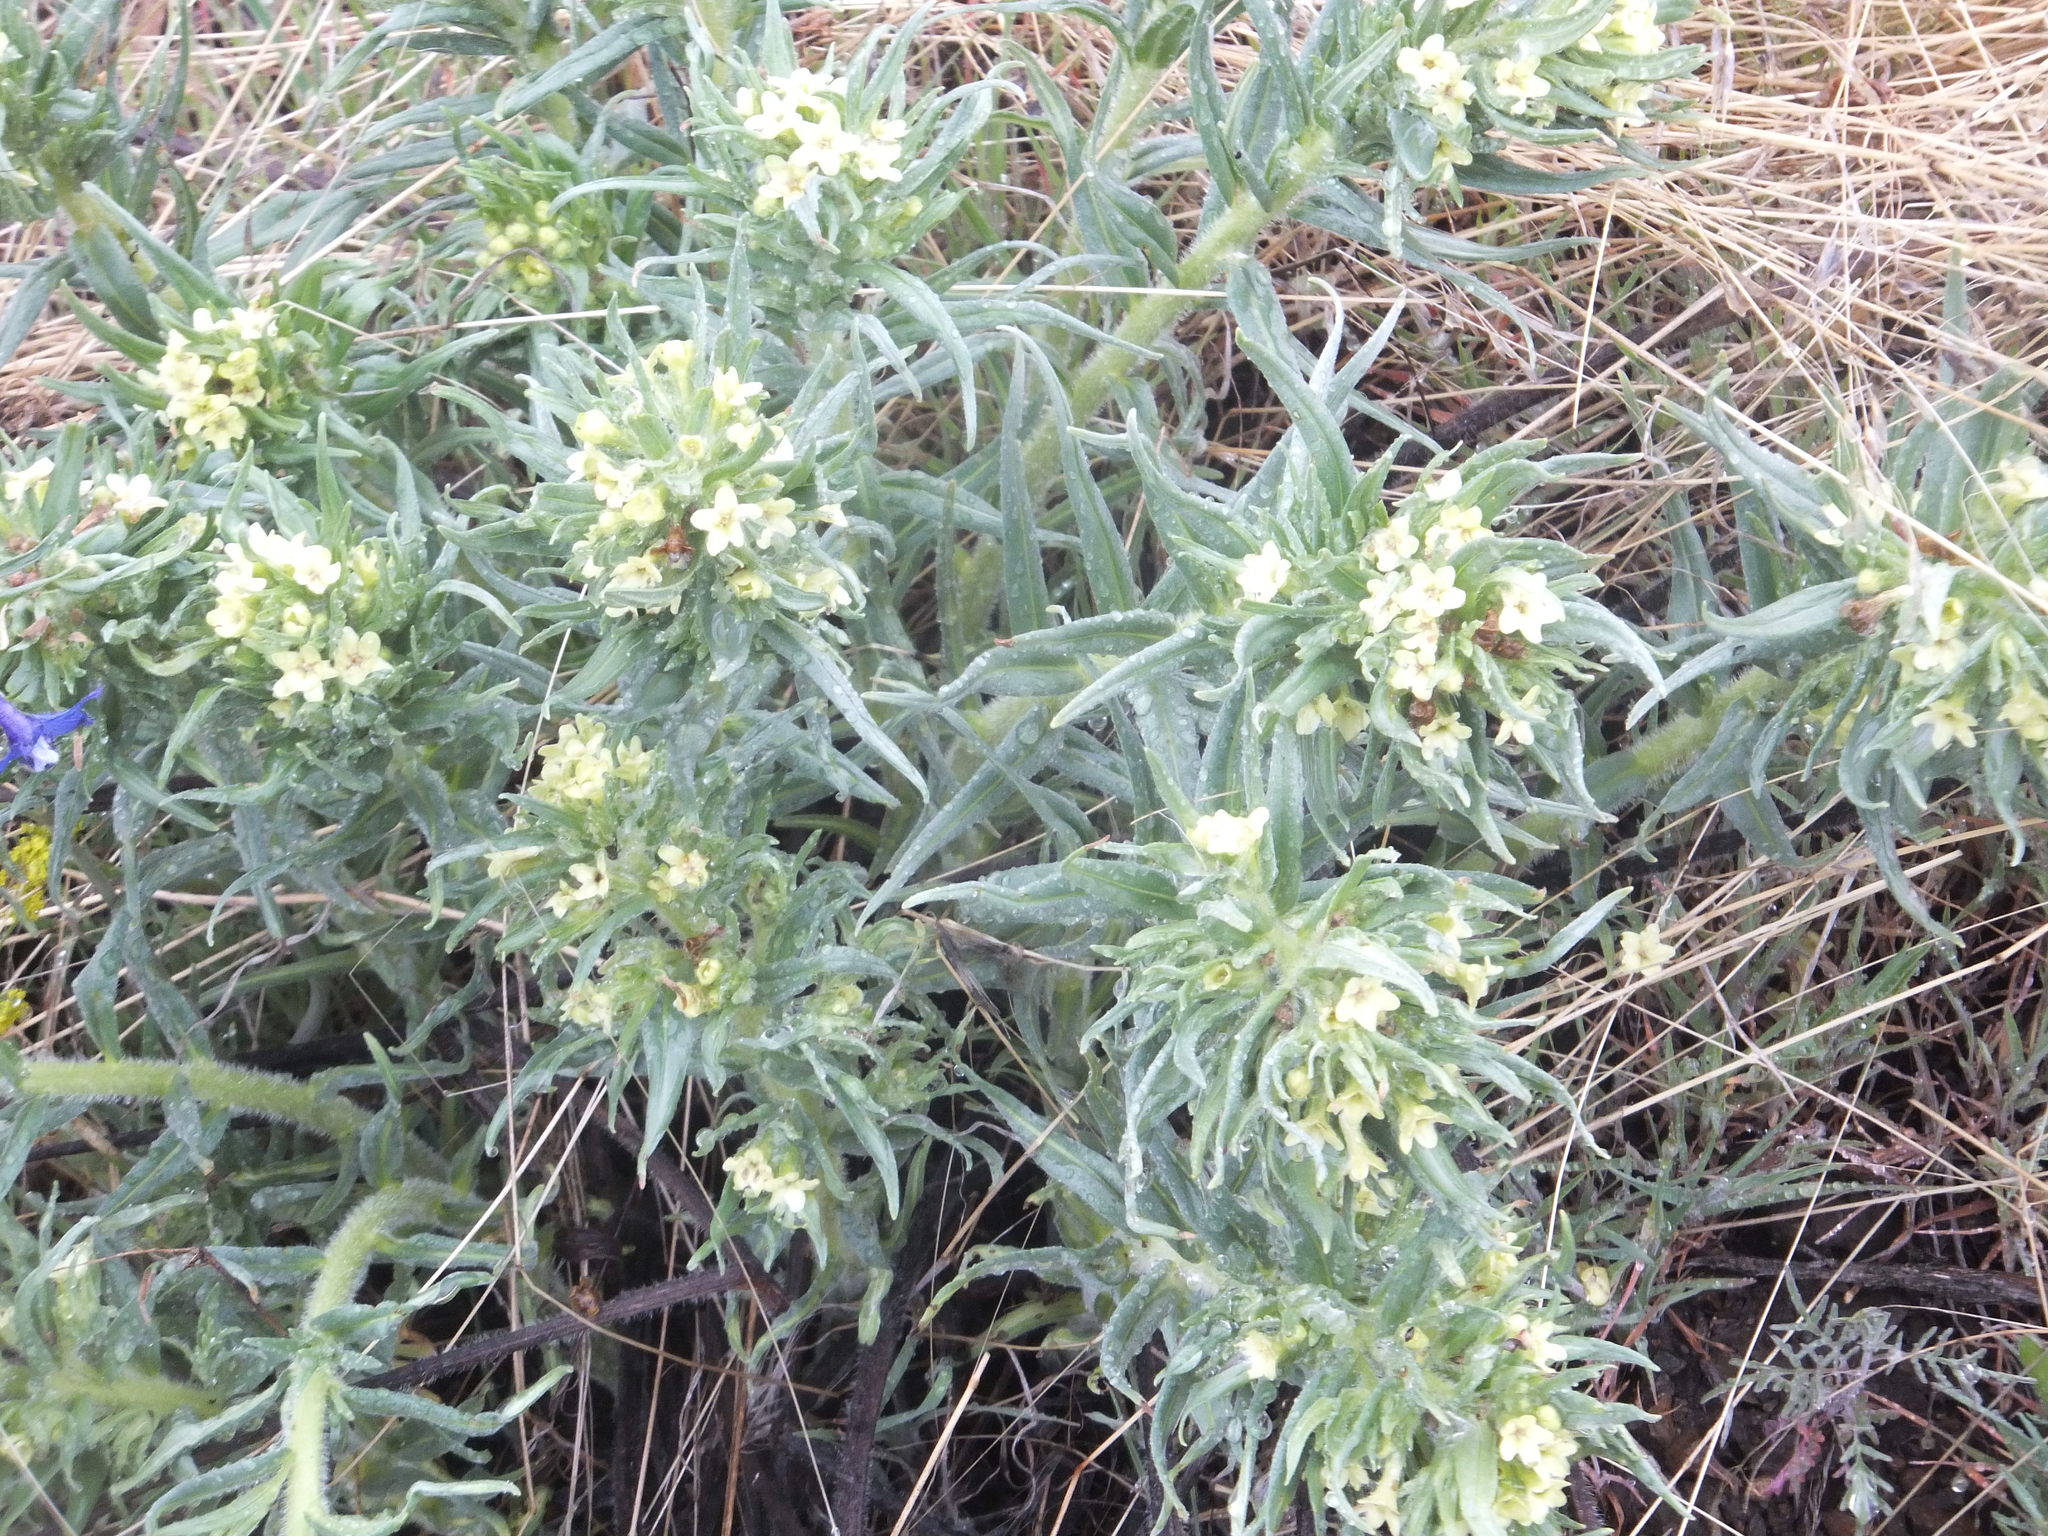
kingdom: Plantae
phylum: Tracheophyta
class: Magnoliopsida
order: Boraginales
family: Boraginaceae
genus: Lithospermum
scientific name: Lithospermum ruderale
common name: Western gromwell
